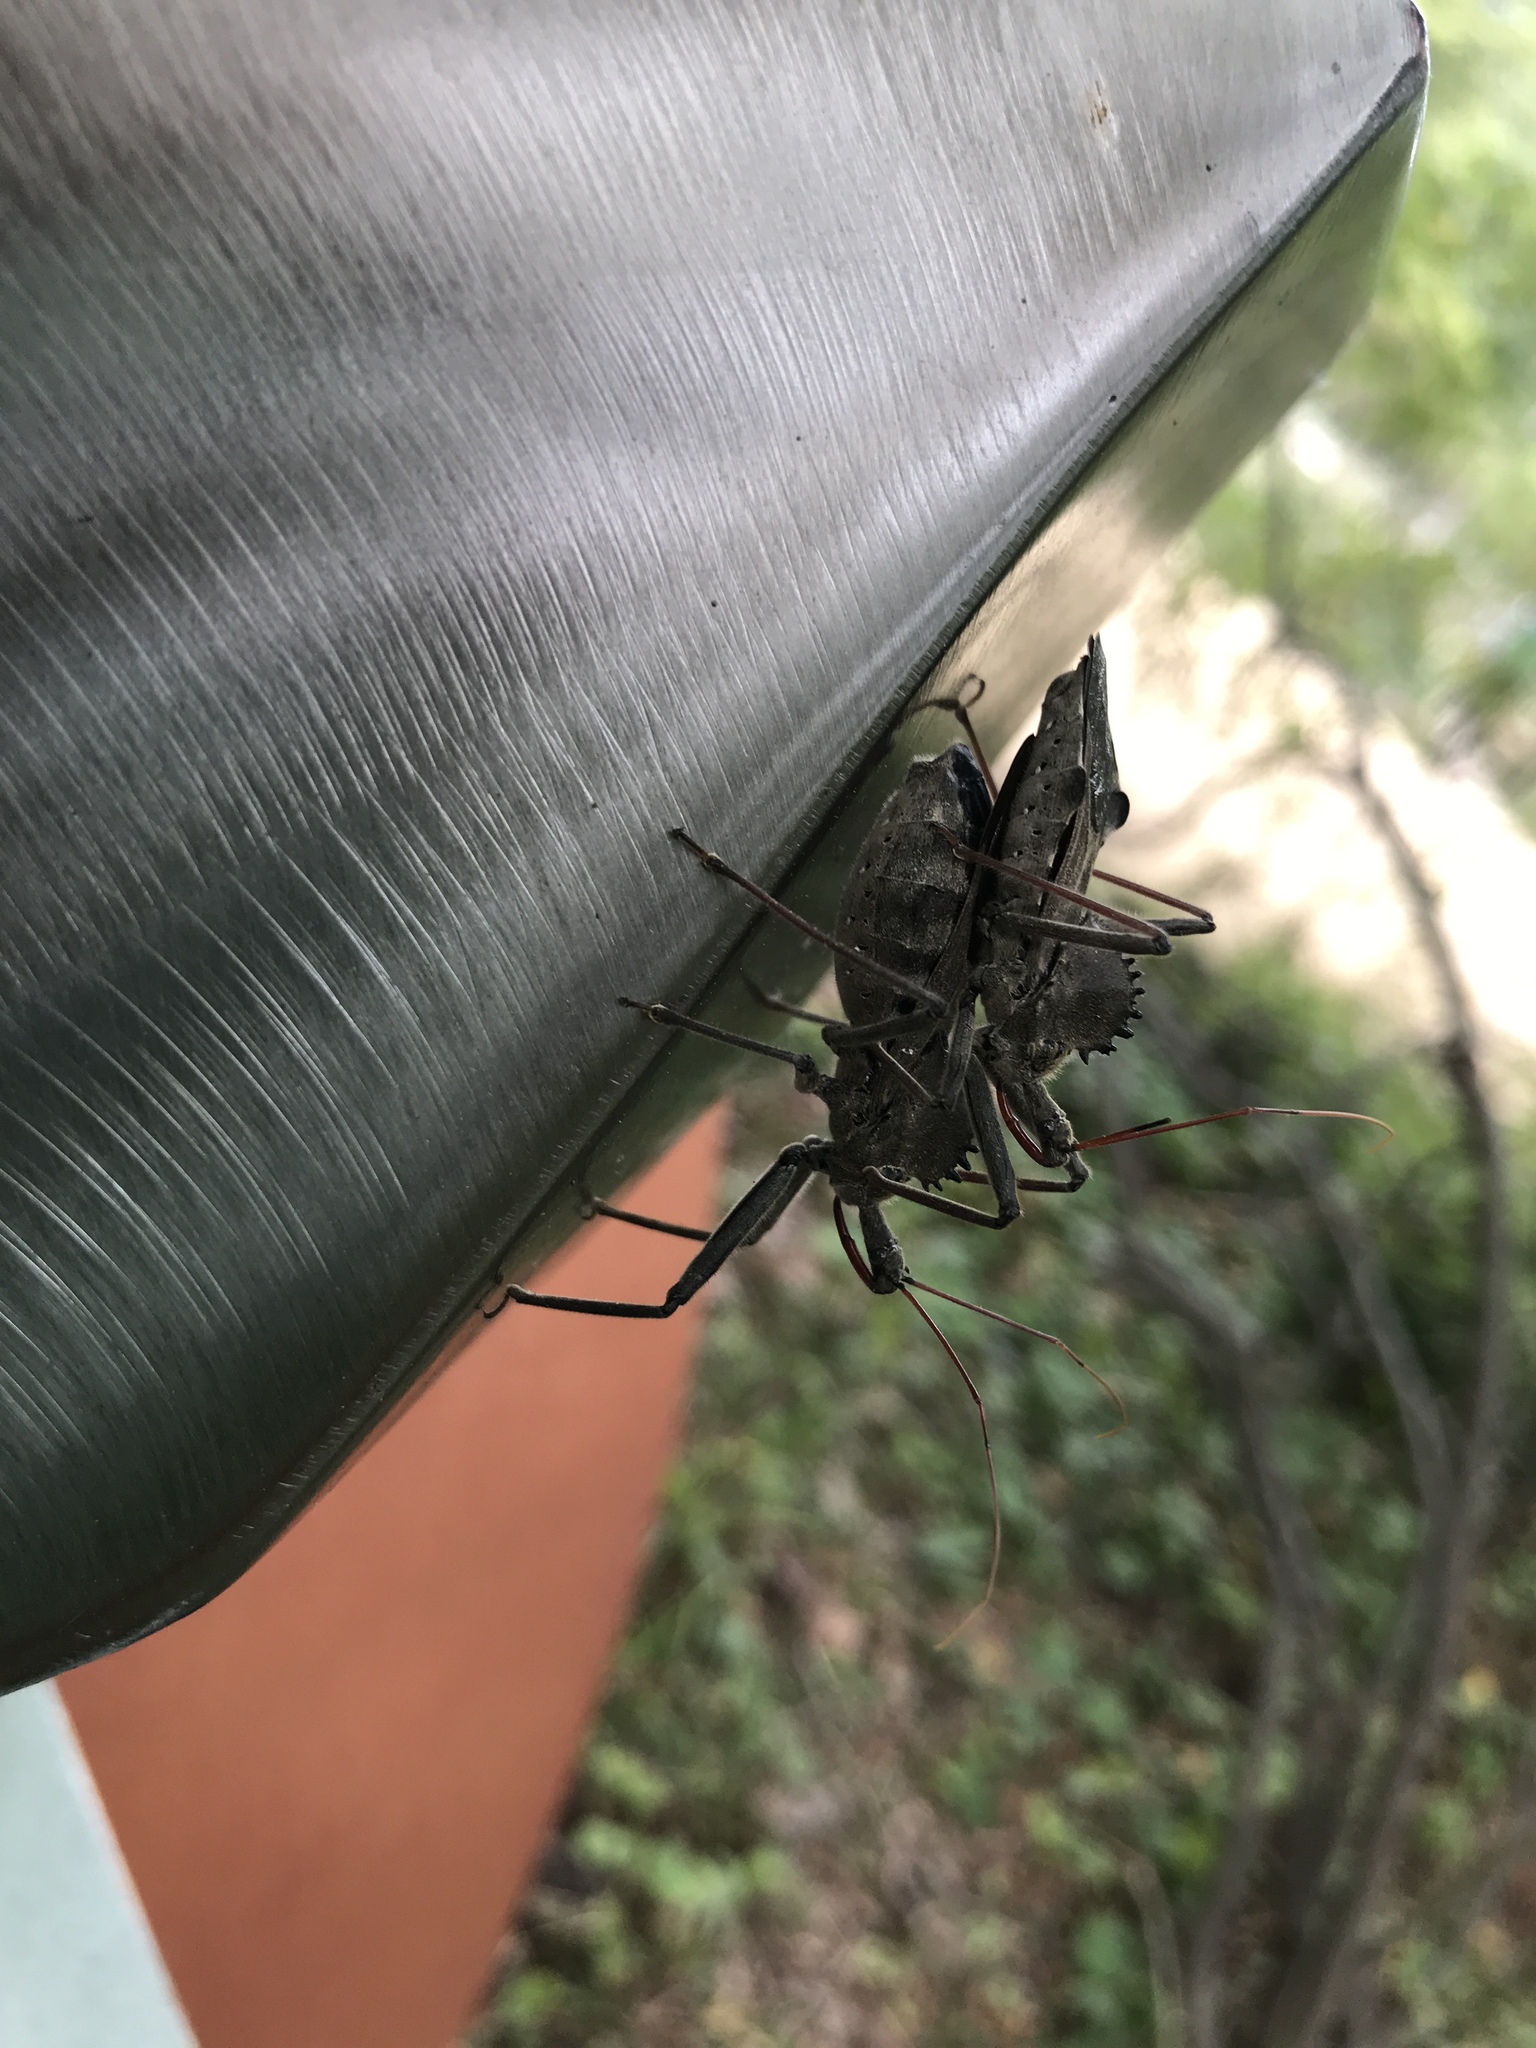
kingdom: Animalia
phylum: Arthropoda
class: Insecta
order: Hemiptera
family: Reduviidae
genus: Arilus
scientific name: Arilus cristatus
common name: North american wheel bug
